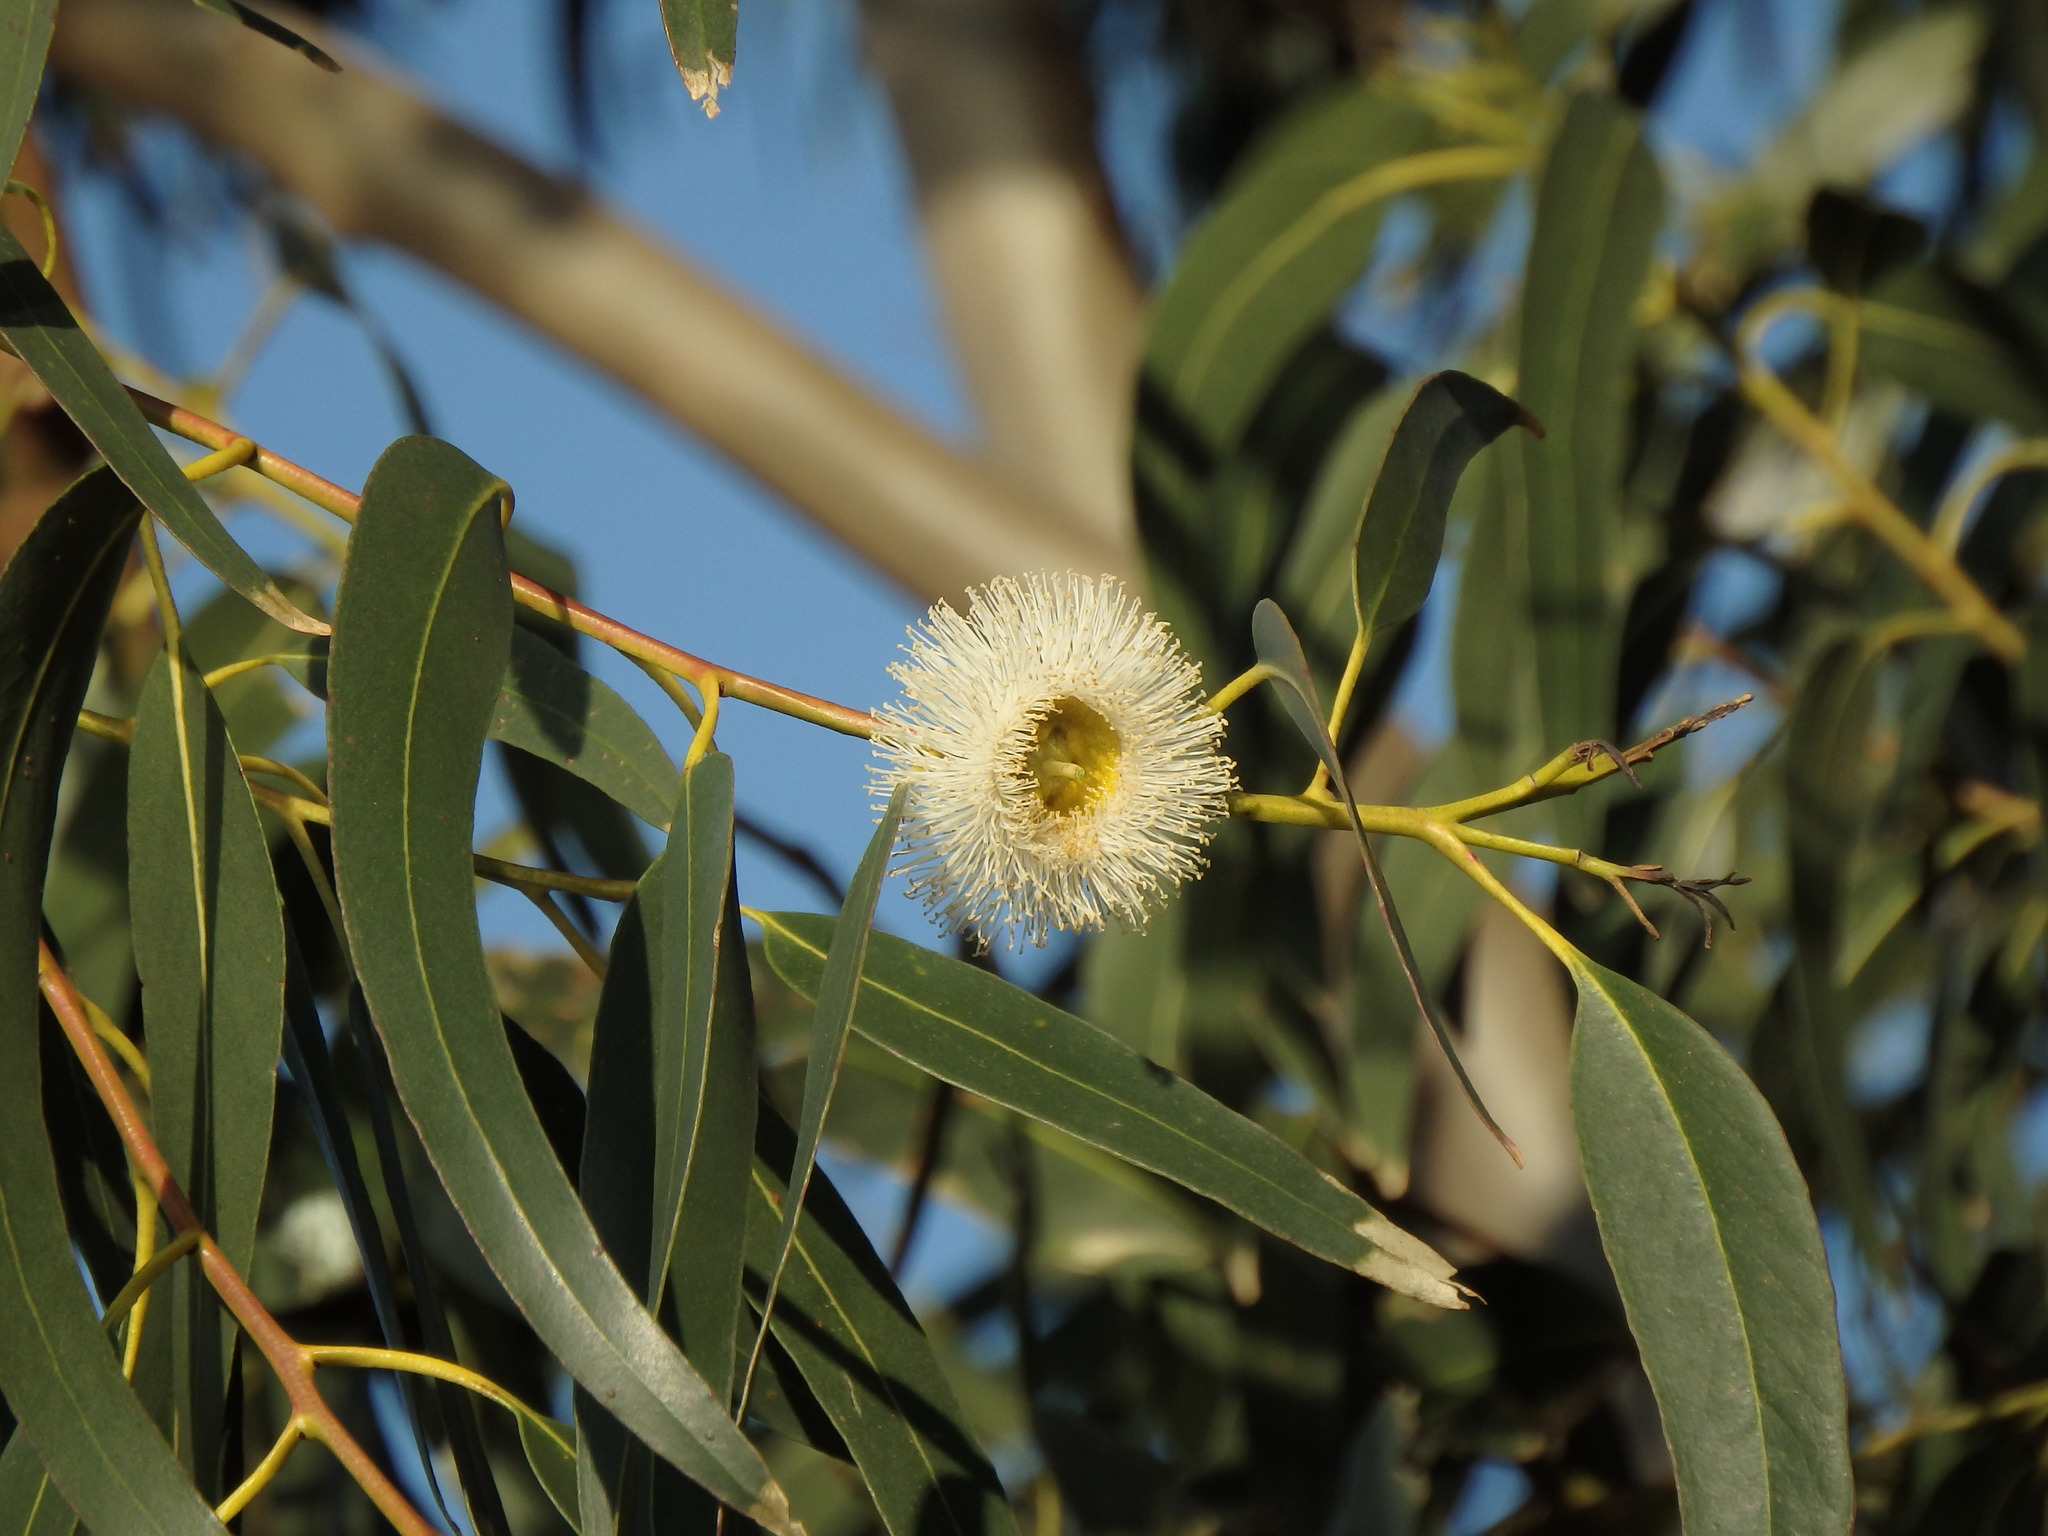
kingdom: Plantae
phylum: Tracheophyta
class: Magnoliopsida
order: Myrtales
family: Myrtaceae
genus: Eucalyptus
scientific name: Eucalyptus globulus
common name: Southern blue-gum
